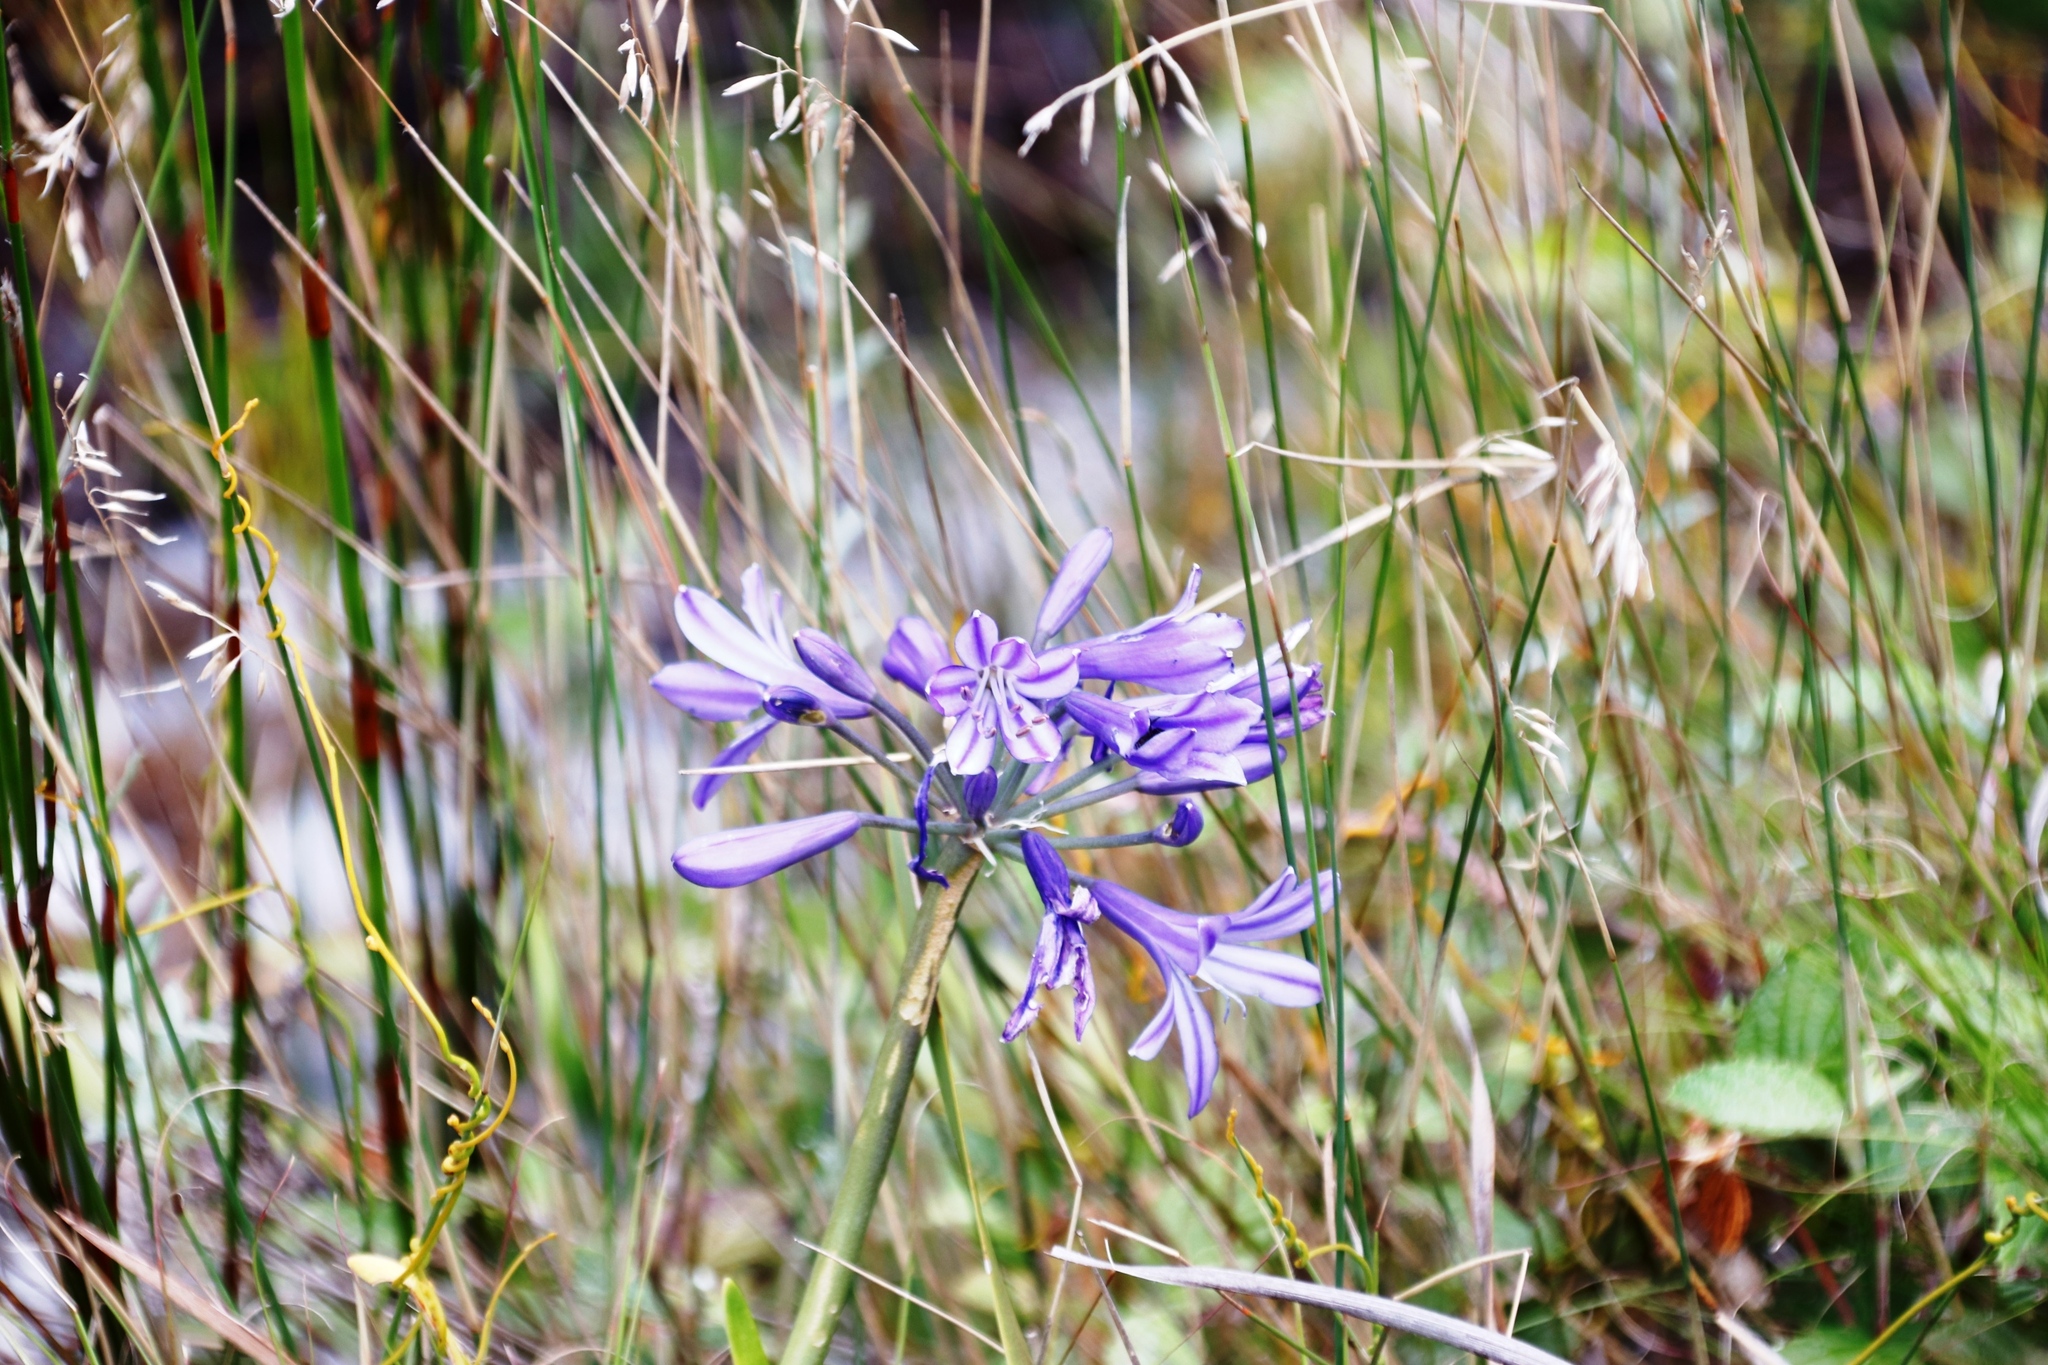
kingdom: Plantae
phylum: Tracheophyta
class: Liliopsida
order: Asparagales
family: Amaryllidaceae
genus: Agapanthus
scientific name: Agapanthus
